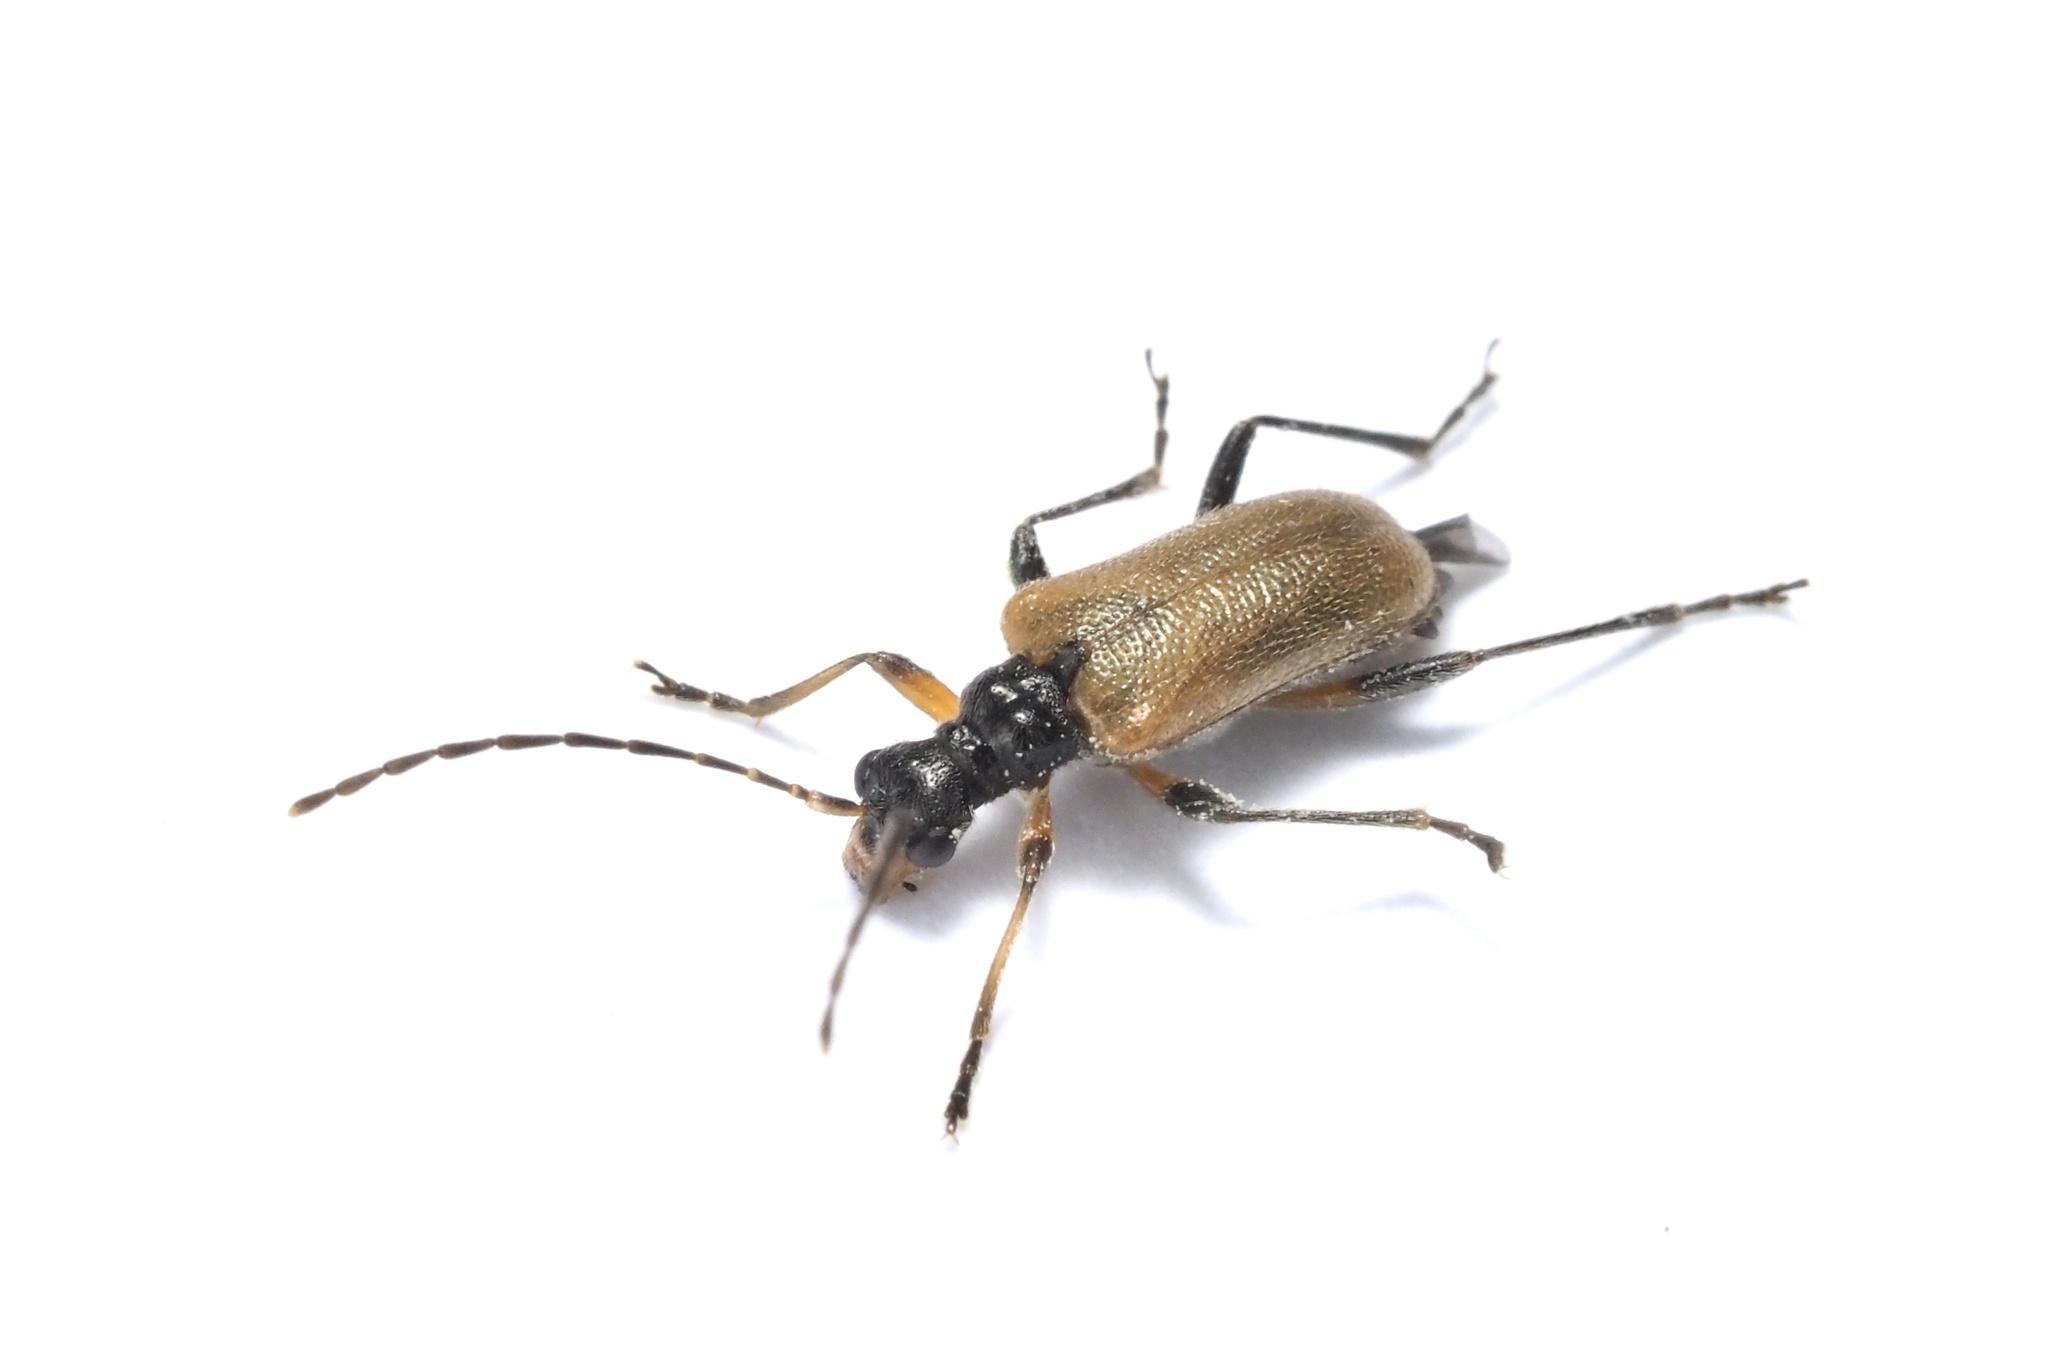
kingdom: Animalia
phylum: Arthropoda
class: Insecta
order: Coleoptera
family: Cerambycidae
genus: Lemula
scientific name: Lemula decipiens
